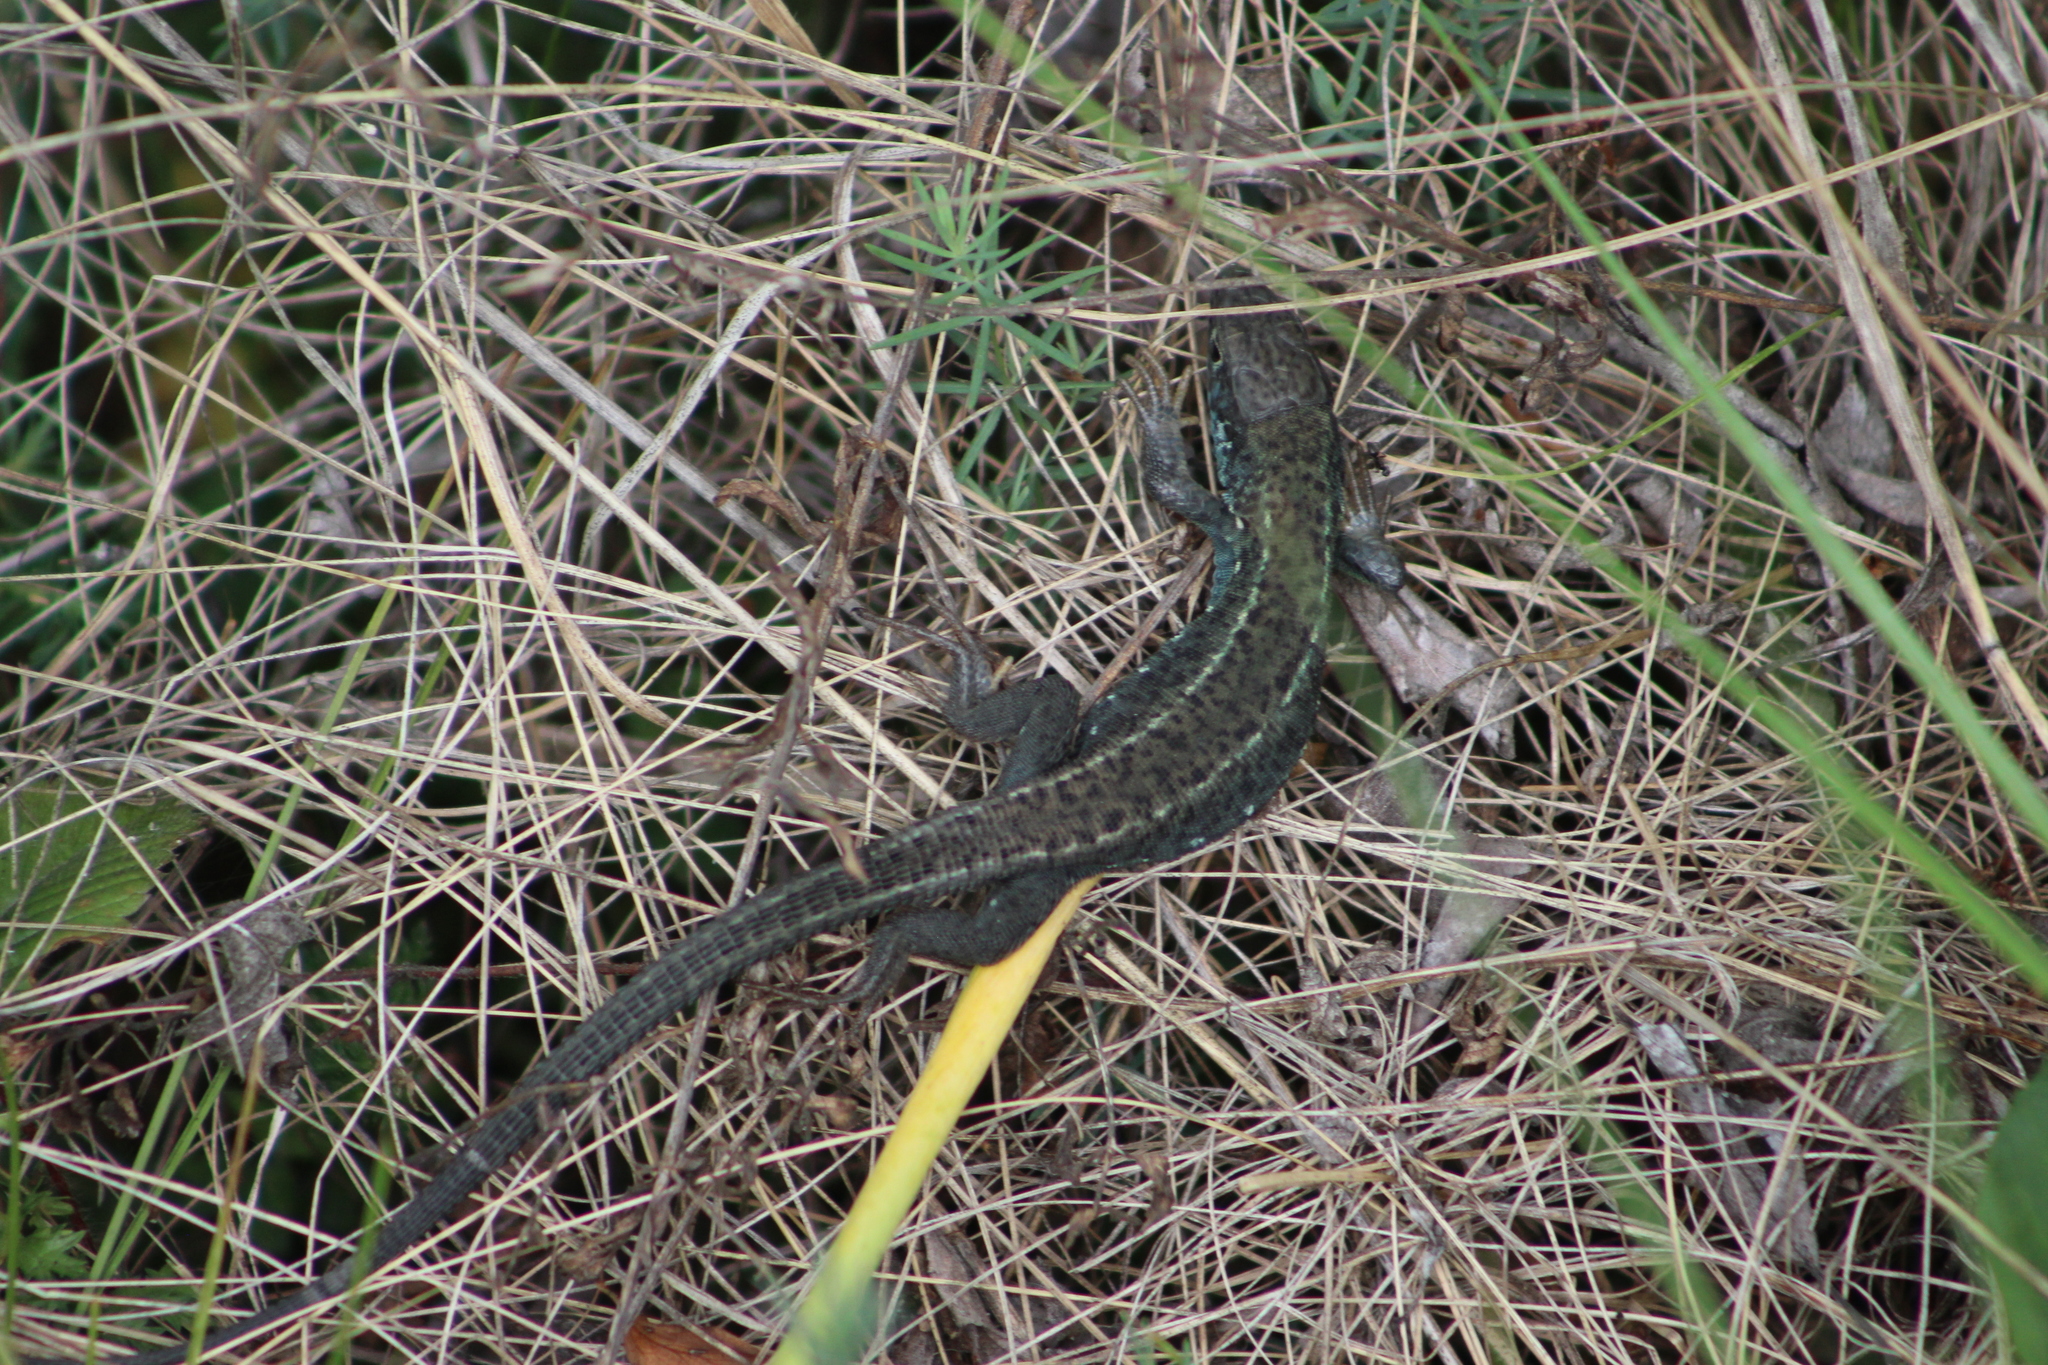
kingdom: Animalia
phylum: Chordata
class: Squamata
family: Lacertidae
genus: Lacerta
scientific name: Lacerta viridis
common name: European green lizard
